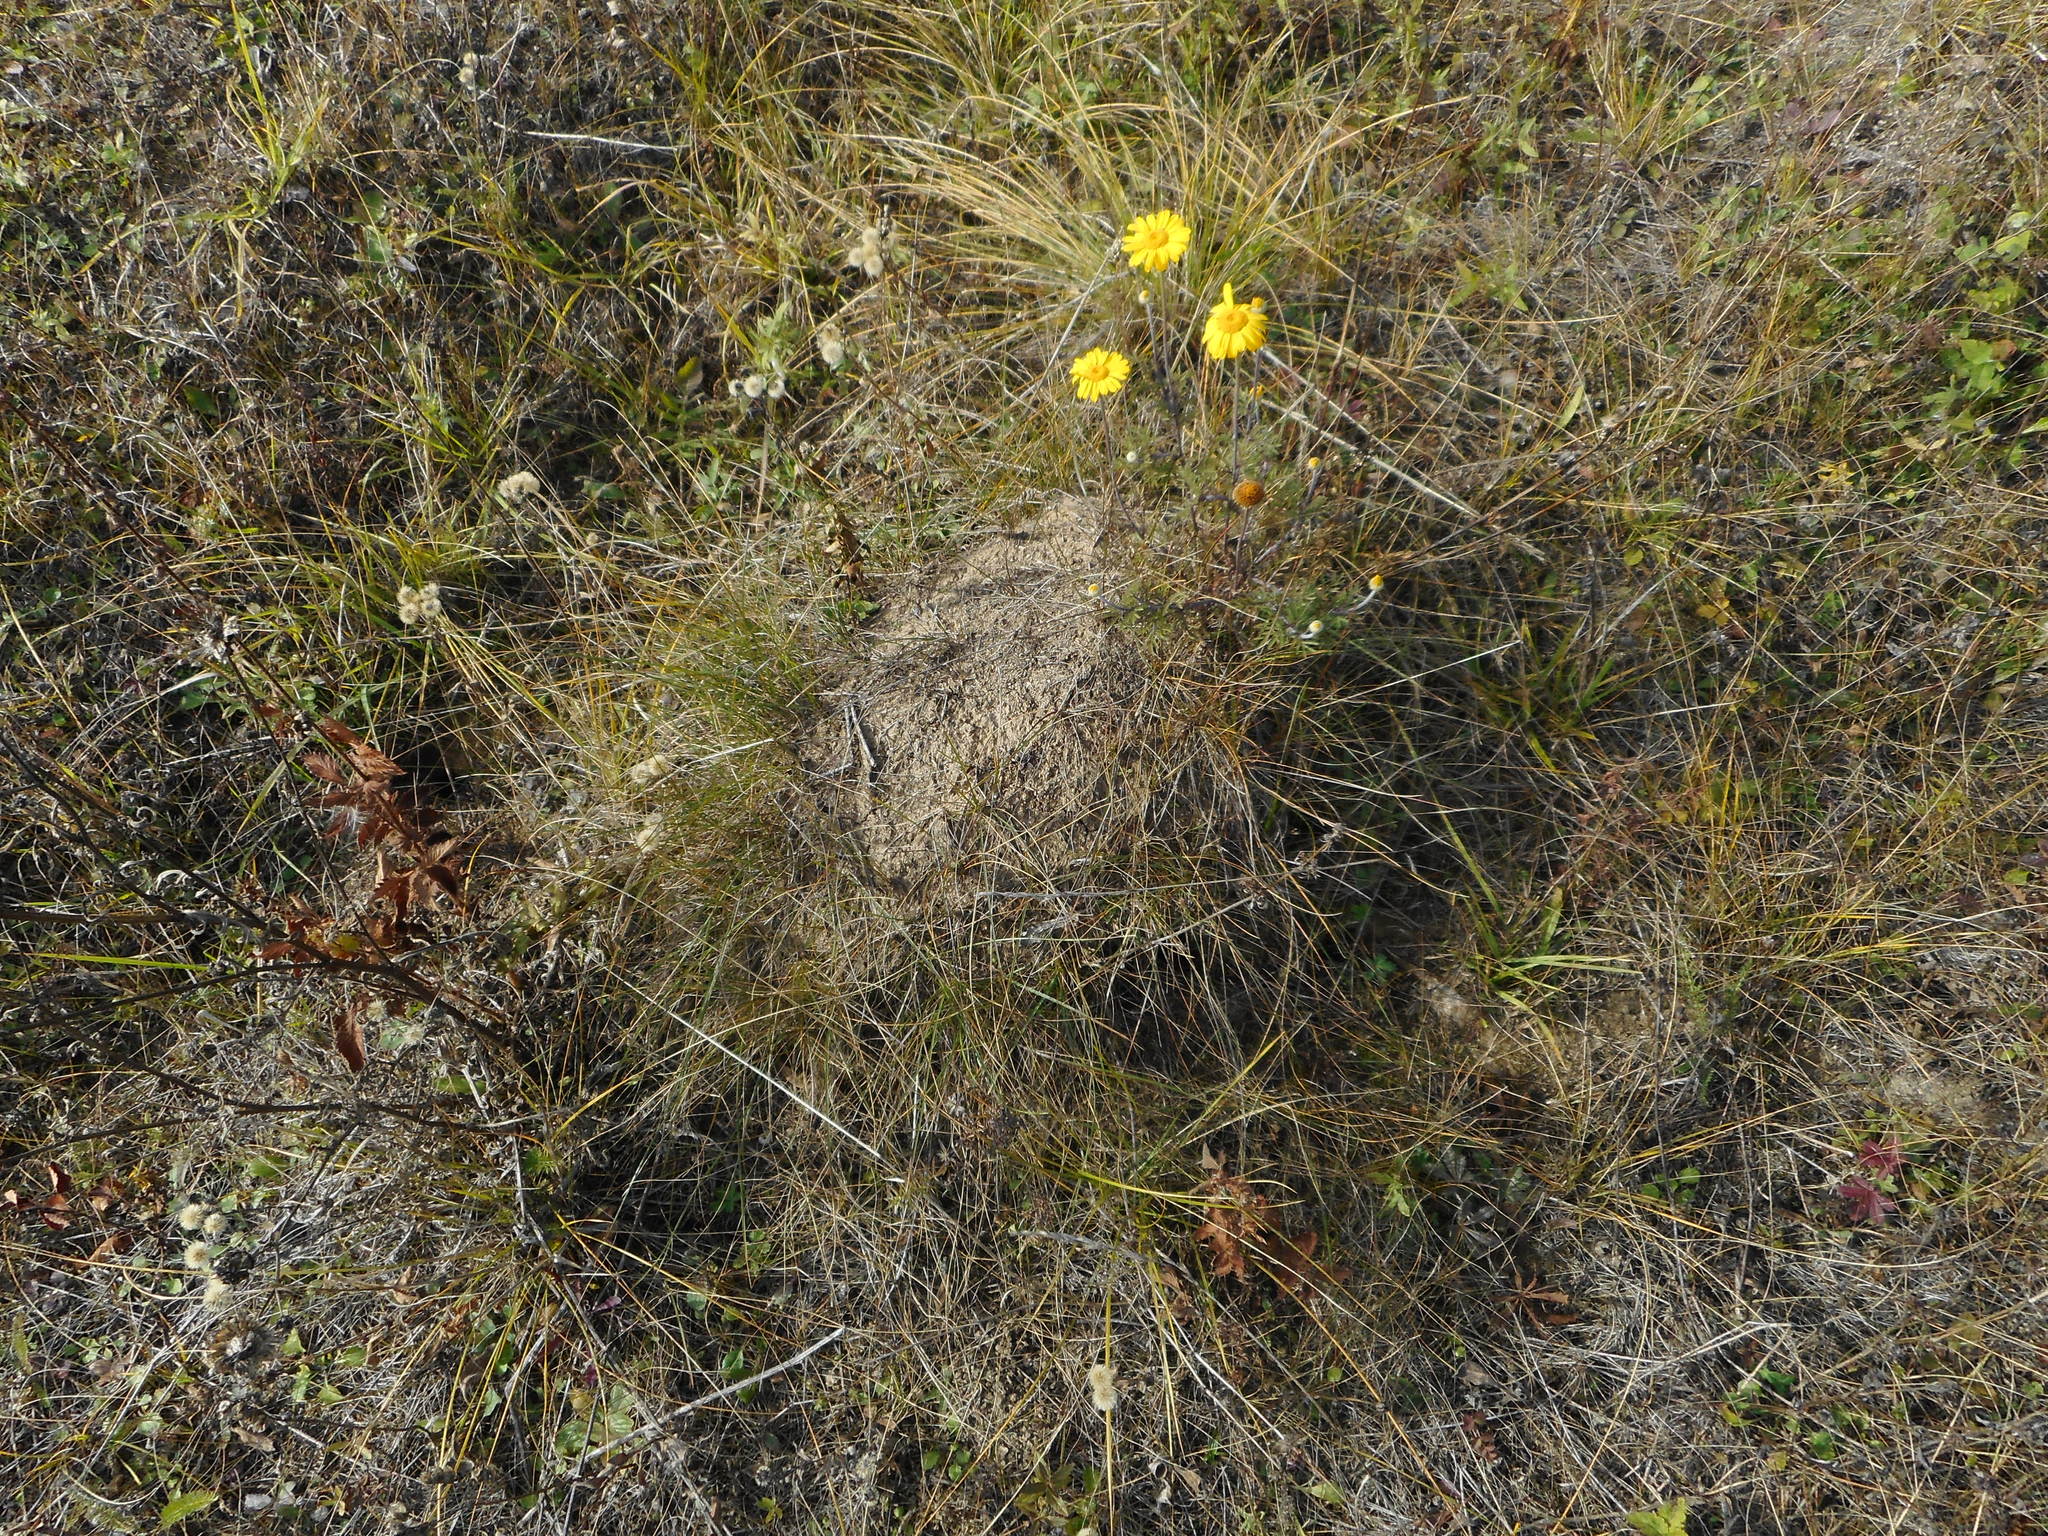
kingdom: Plantae
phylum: Tracheophyta
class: Magnoliopsida
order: Asterales
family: Asteraceae
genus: Cota
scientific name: Cota tinctoria
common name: Golden chamomile
